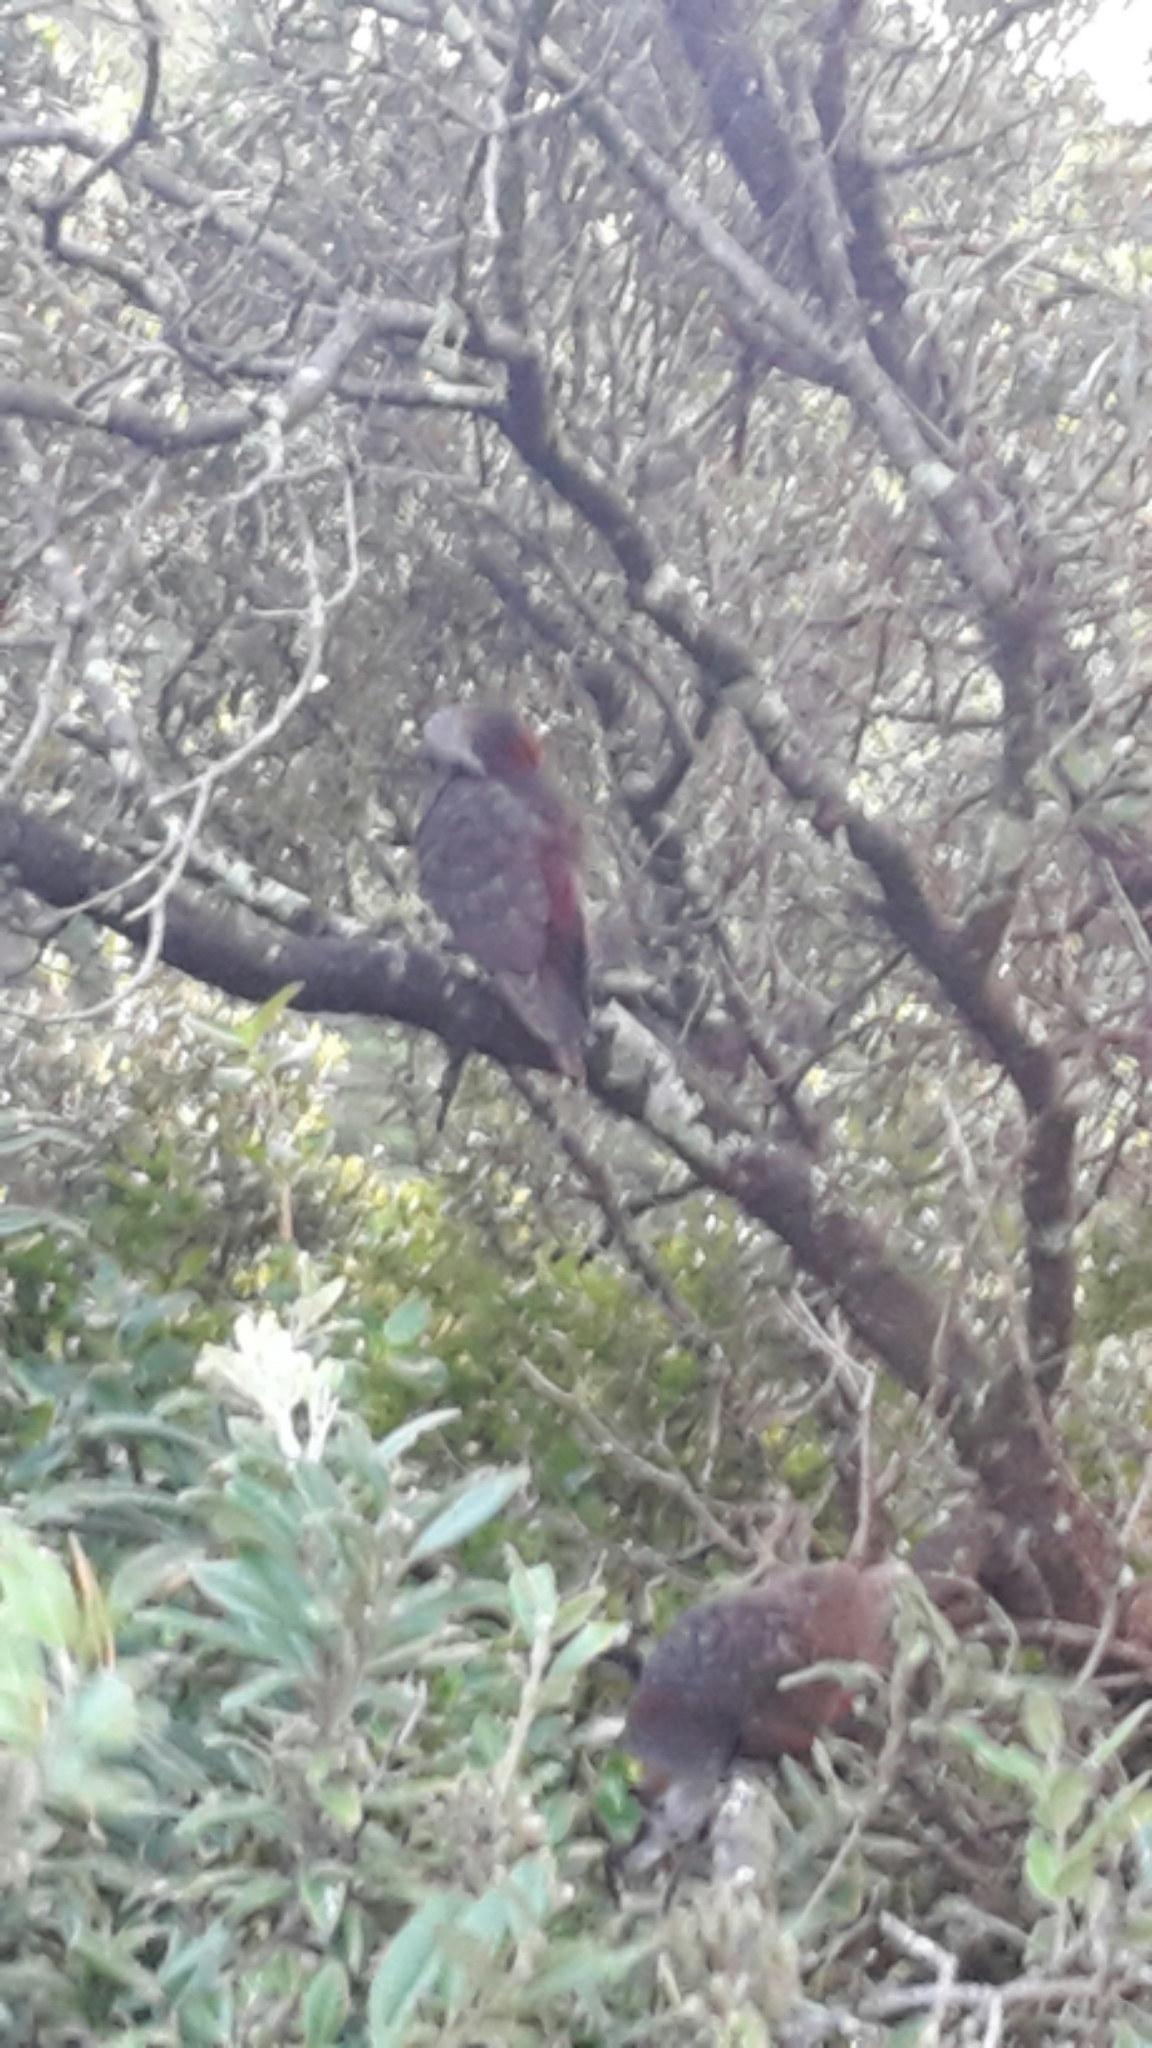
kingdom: Animalia
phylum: Chordata
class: Aves
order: Psittaciformes
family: Psittacidae
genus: Nestor
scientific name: Nestor meridionalis
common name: New zealand kaka
